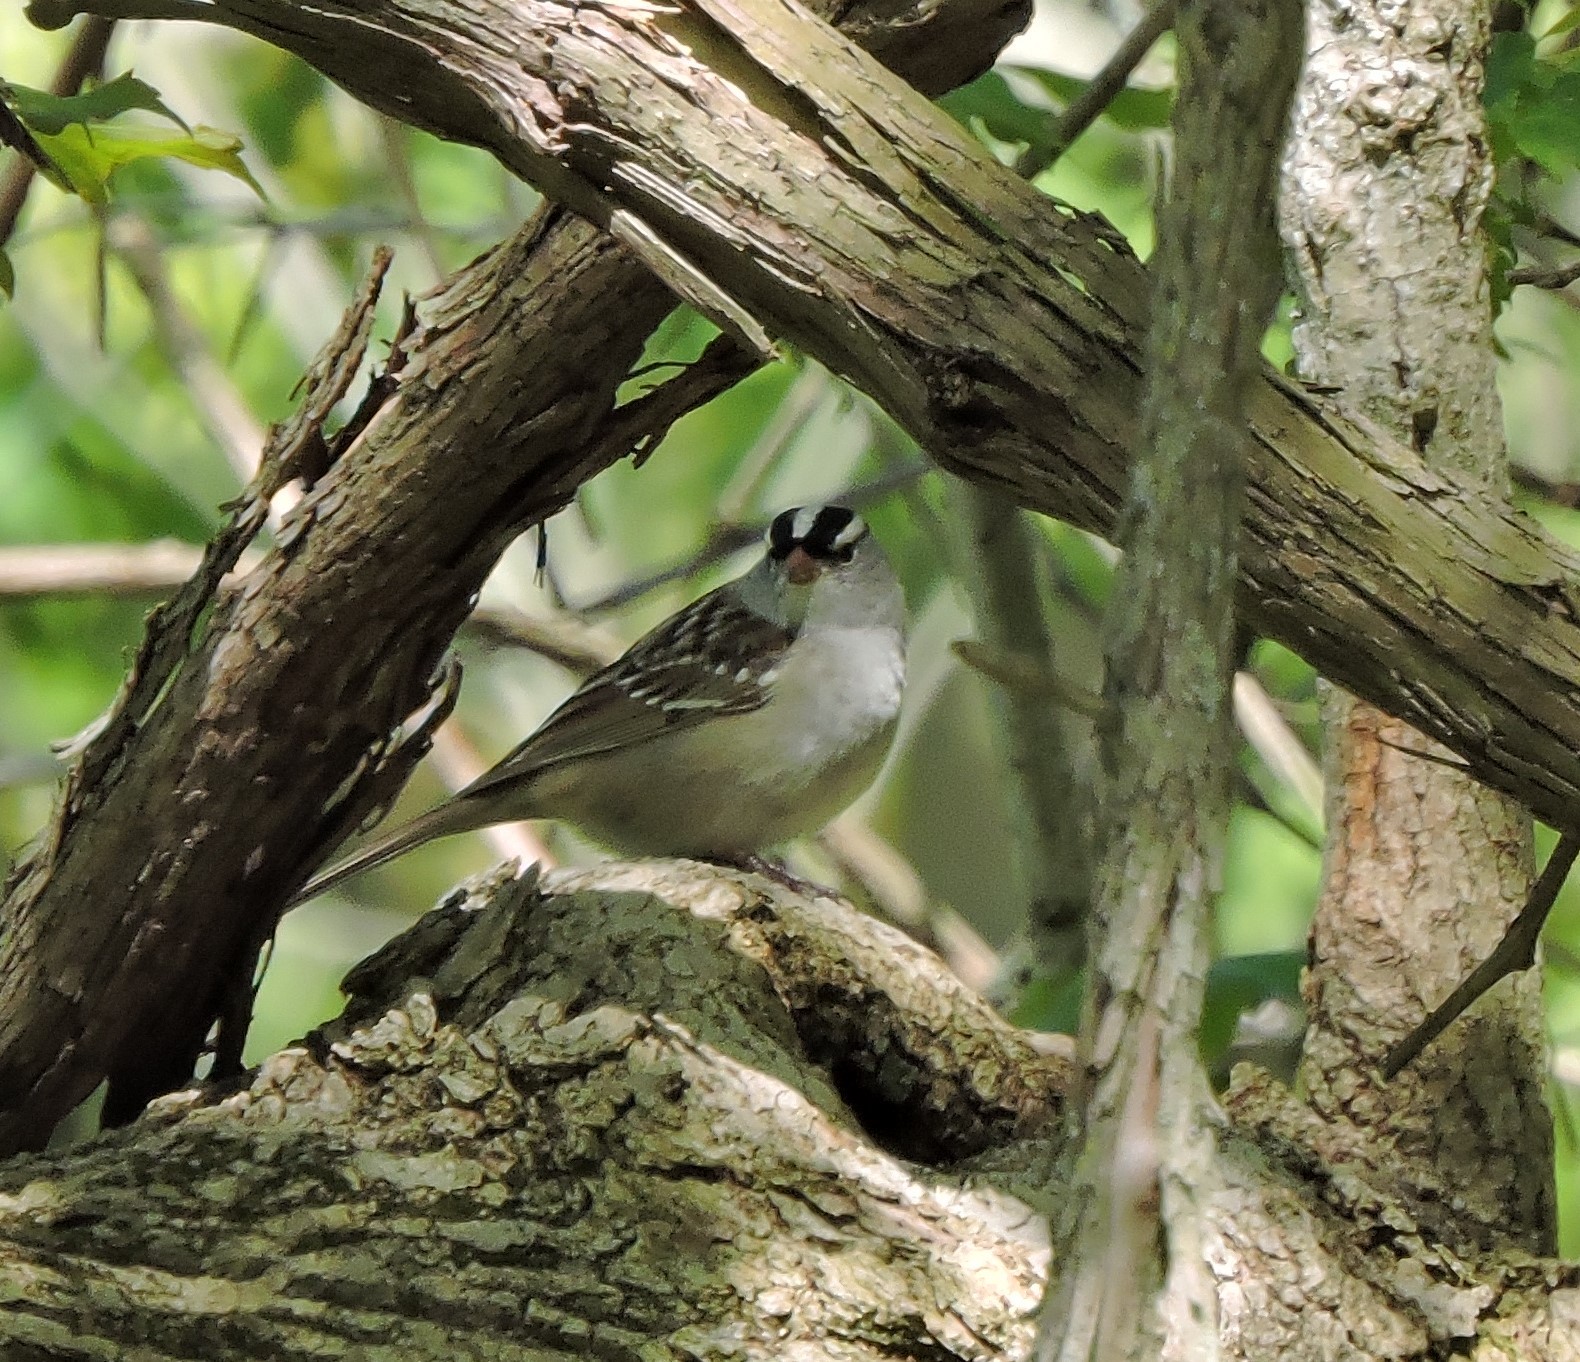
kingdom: Animalia
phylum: Chordata
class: Aves
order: Passeriformes
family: Passerellidae
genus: Zonotrichia
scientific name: Zonotrichia leucophrys
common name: White-crowned sparrow
